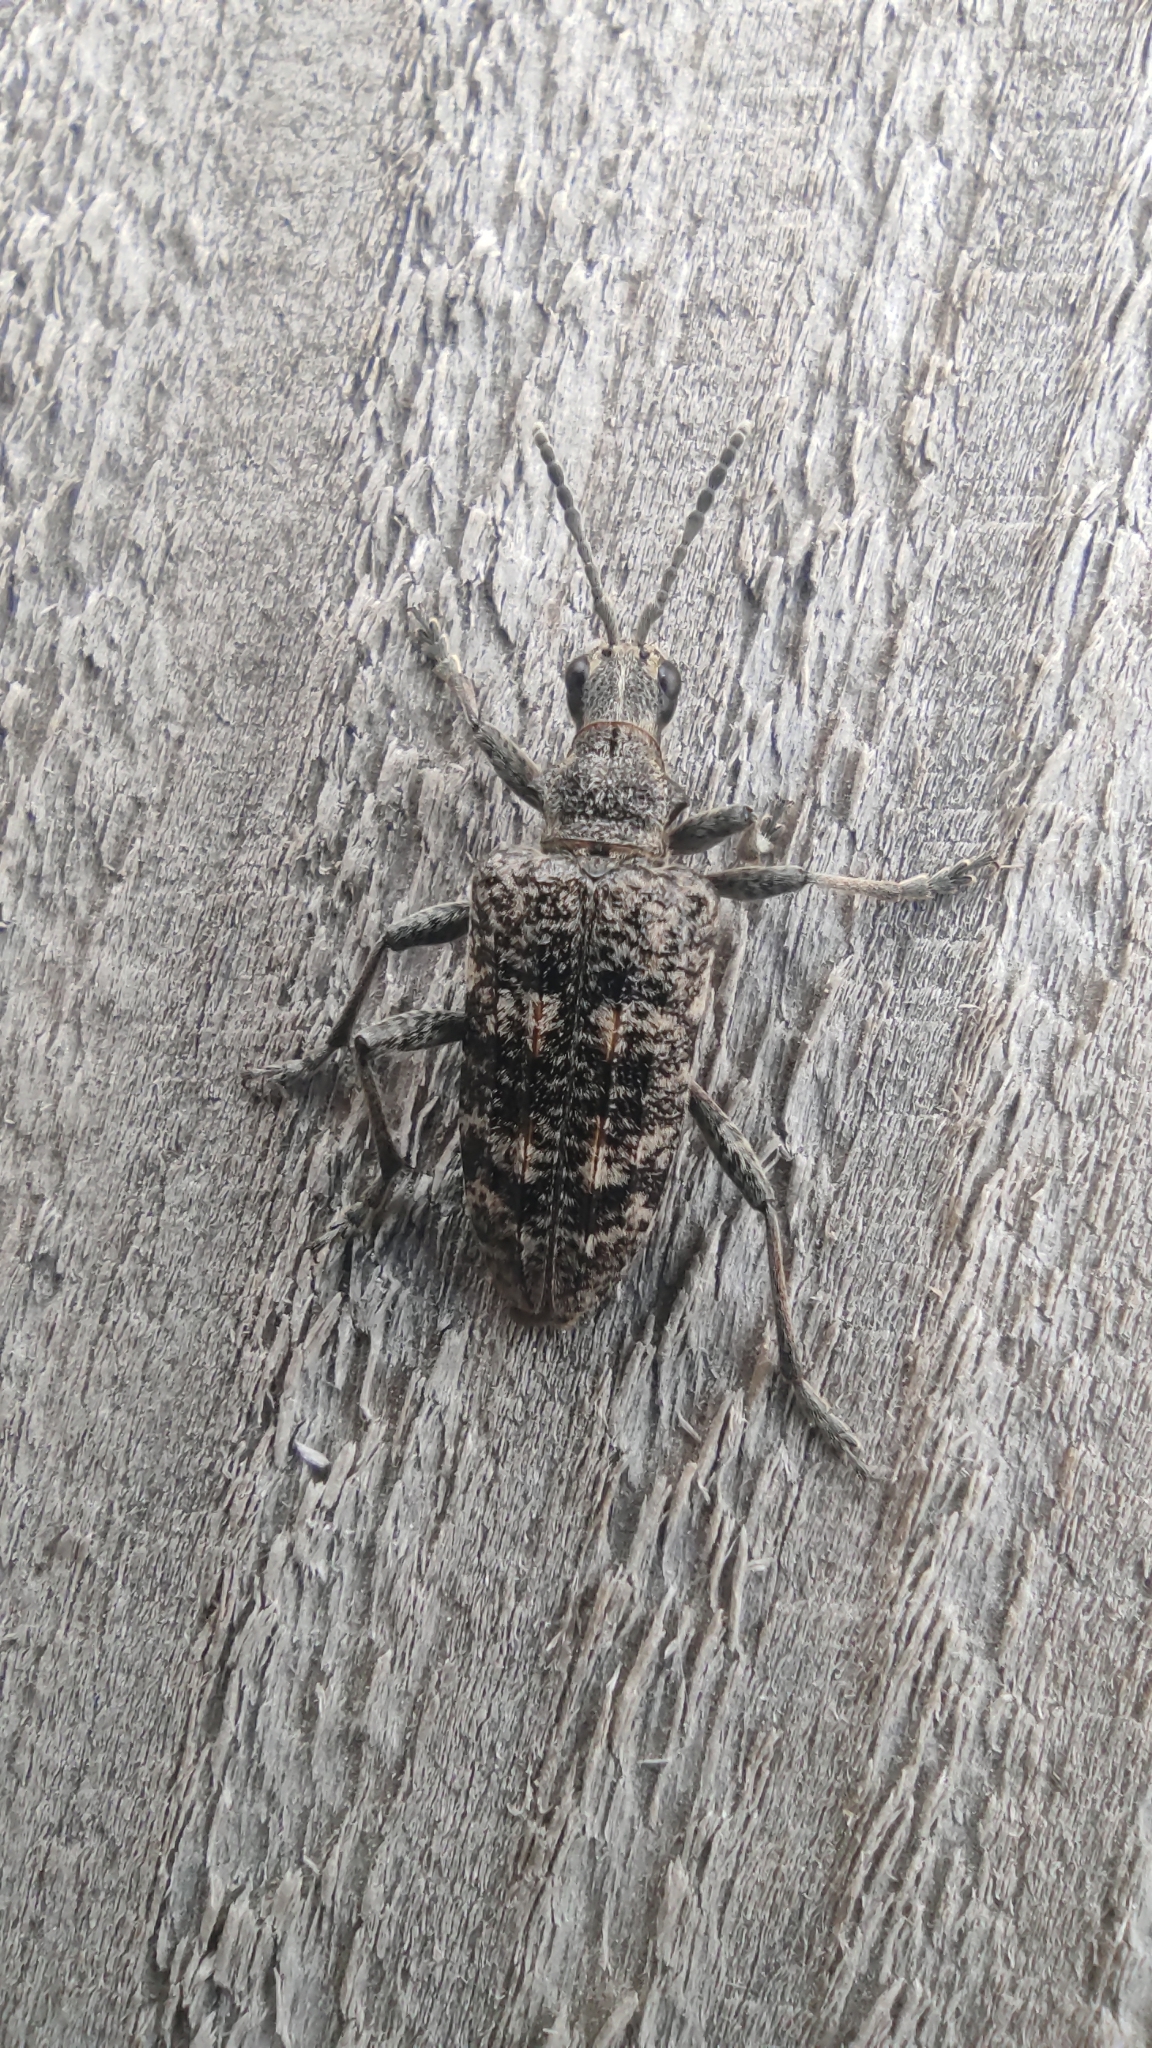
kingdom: Animalia
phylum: Arthropoda
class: Insecta
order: Coleoptera
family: Cerambycidae
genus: Rhagium
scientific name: Rhagium inquisitor
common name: Ribbed pine borer
